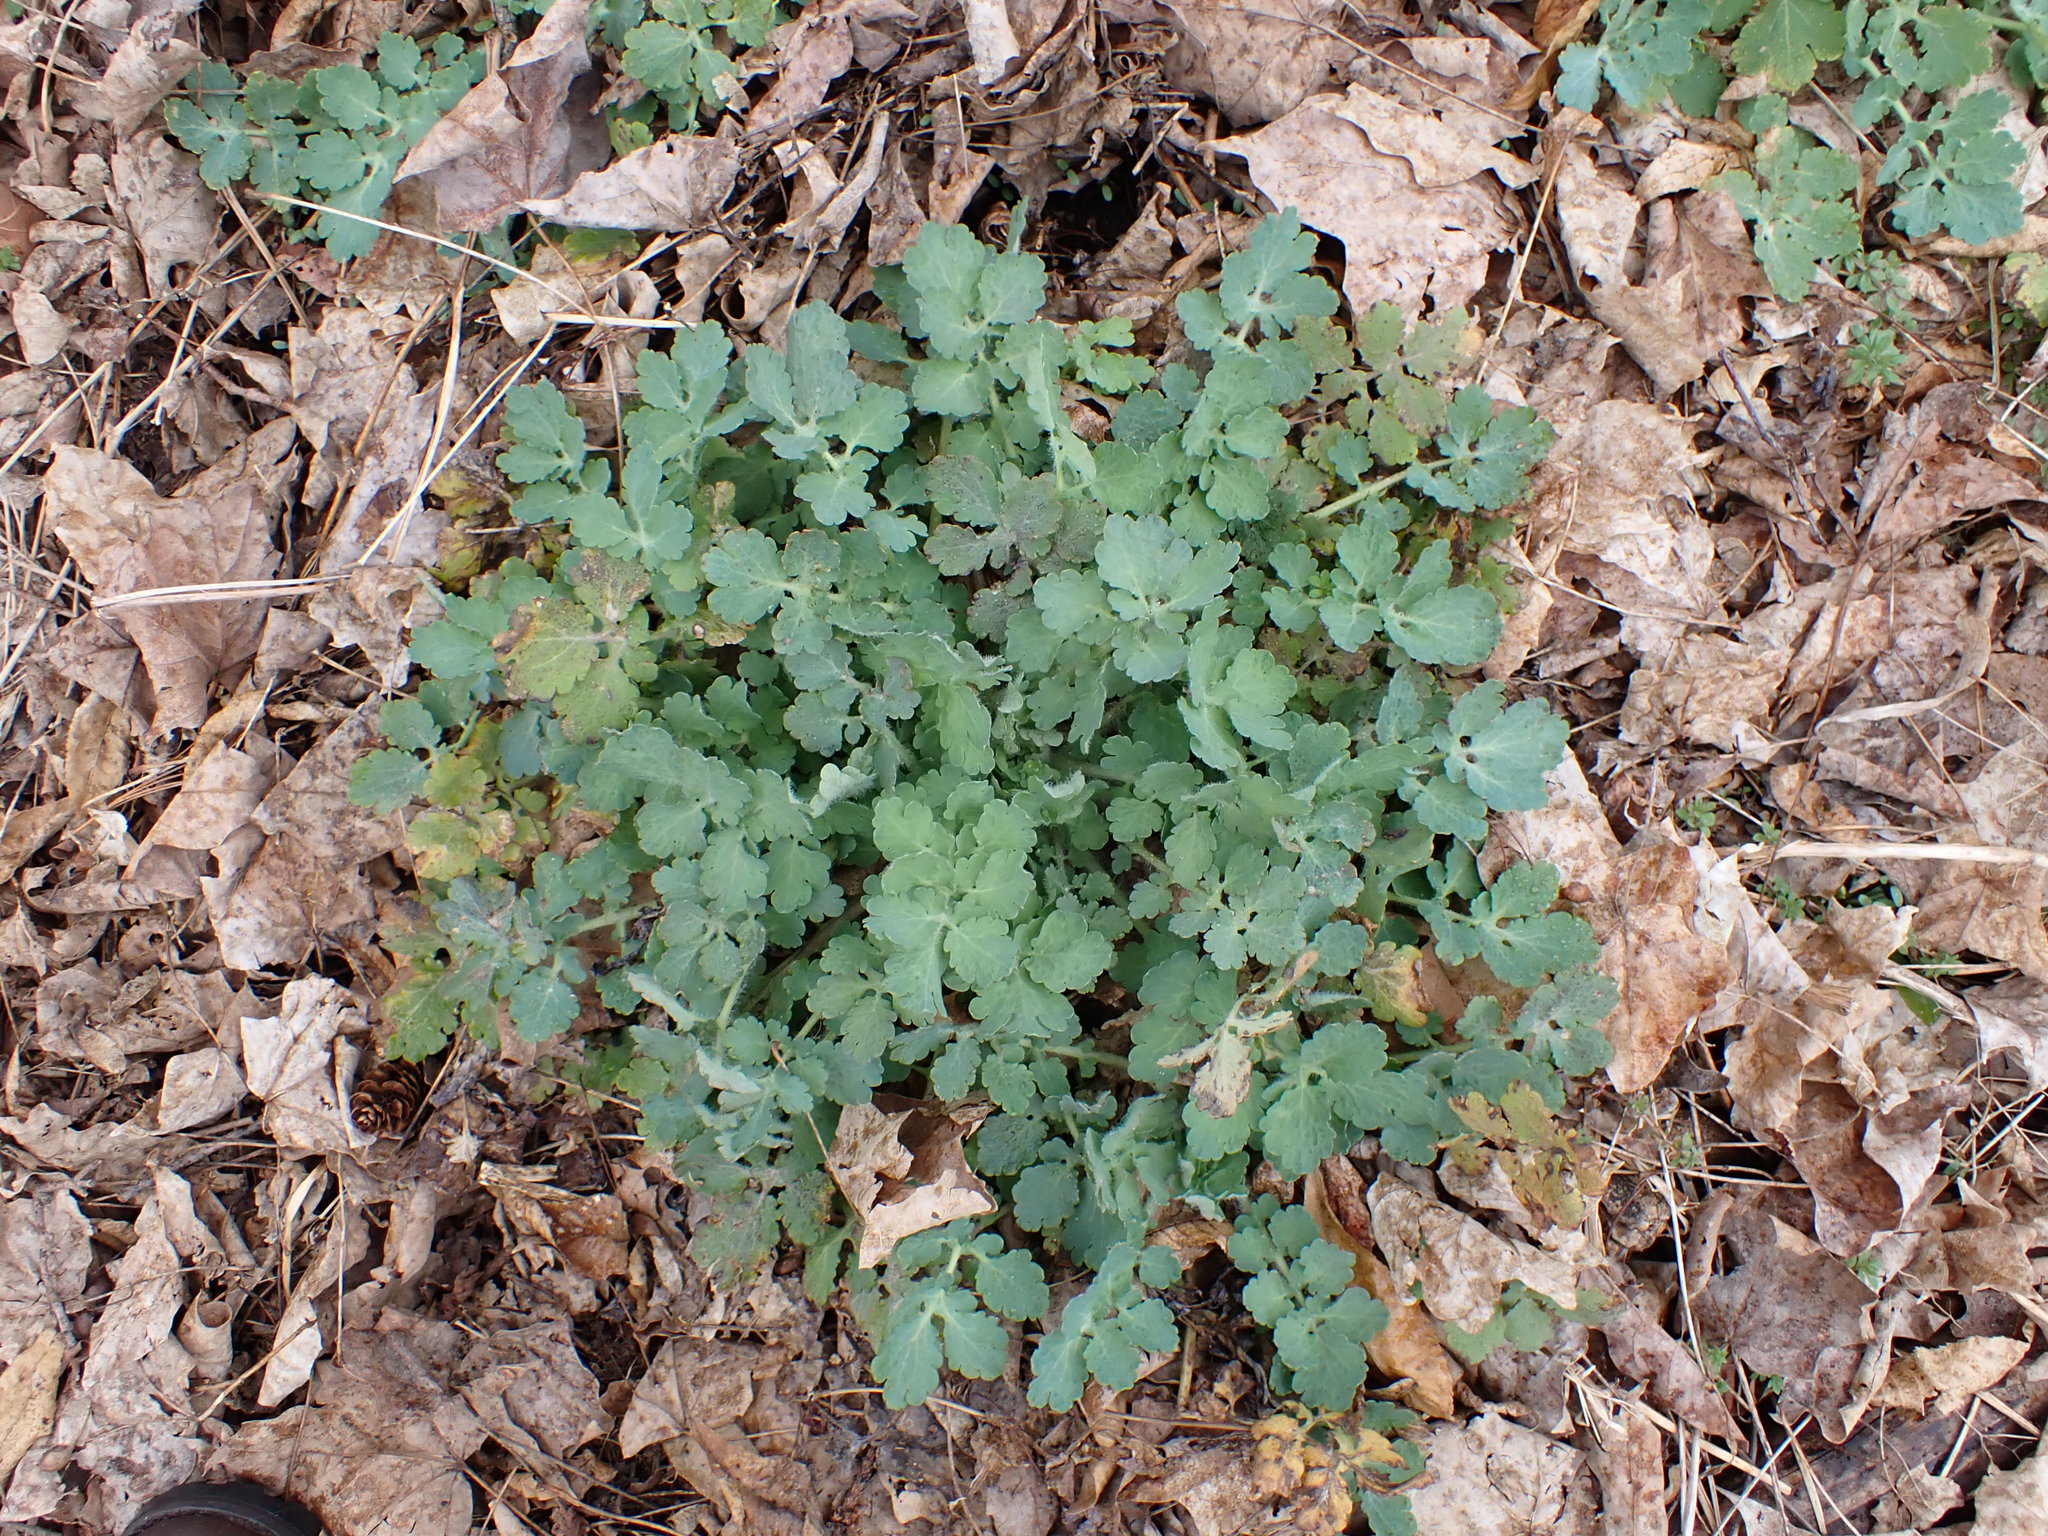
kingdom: Plantae
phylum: Tracheophyta
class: Magnoliopsida
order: Ranunculales
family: Papaveraceae
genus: Chelidonium
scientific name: Chelidonium majus
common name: Greater celandine
